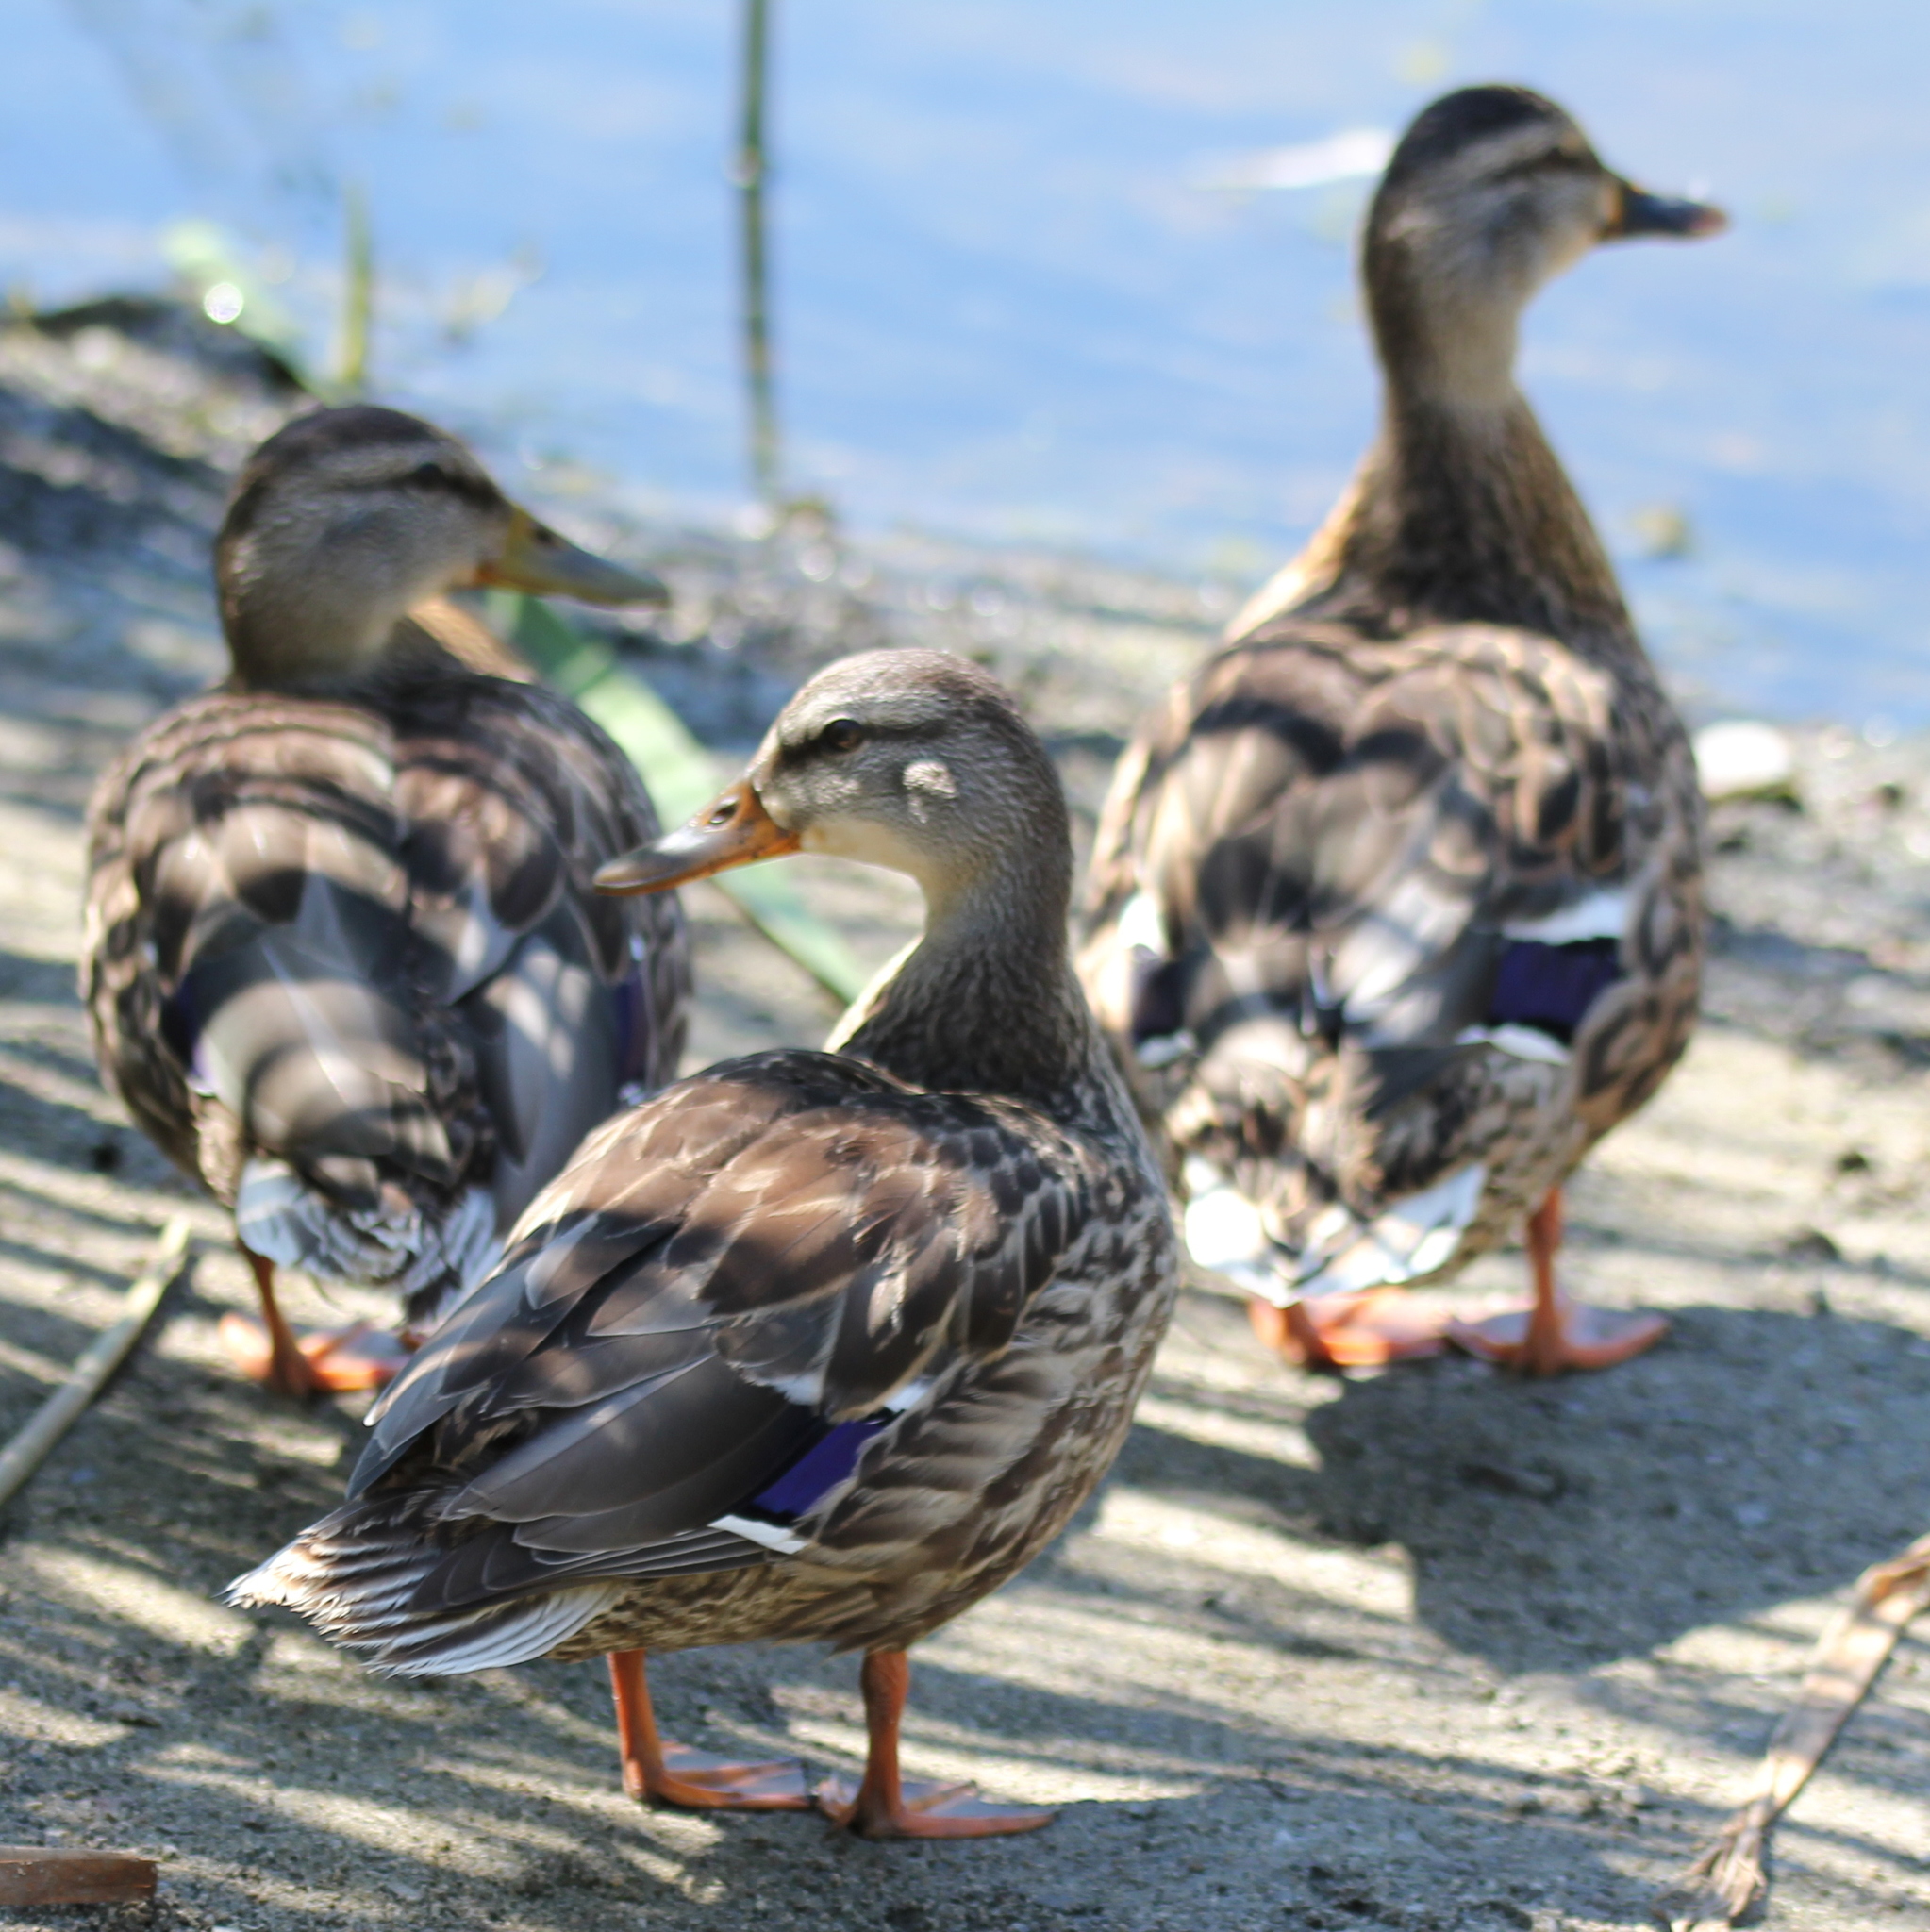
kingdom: Animalia
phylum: Chordata
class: Aves
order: Anseriformes
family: Anatidae
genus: Anas
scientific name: Anas platyrhynchos
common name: Mallard
